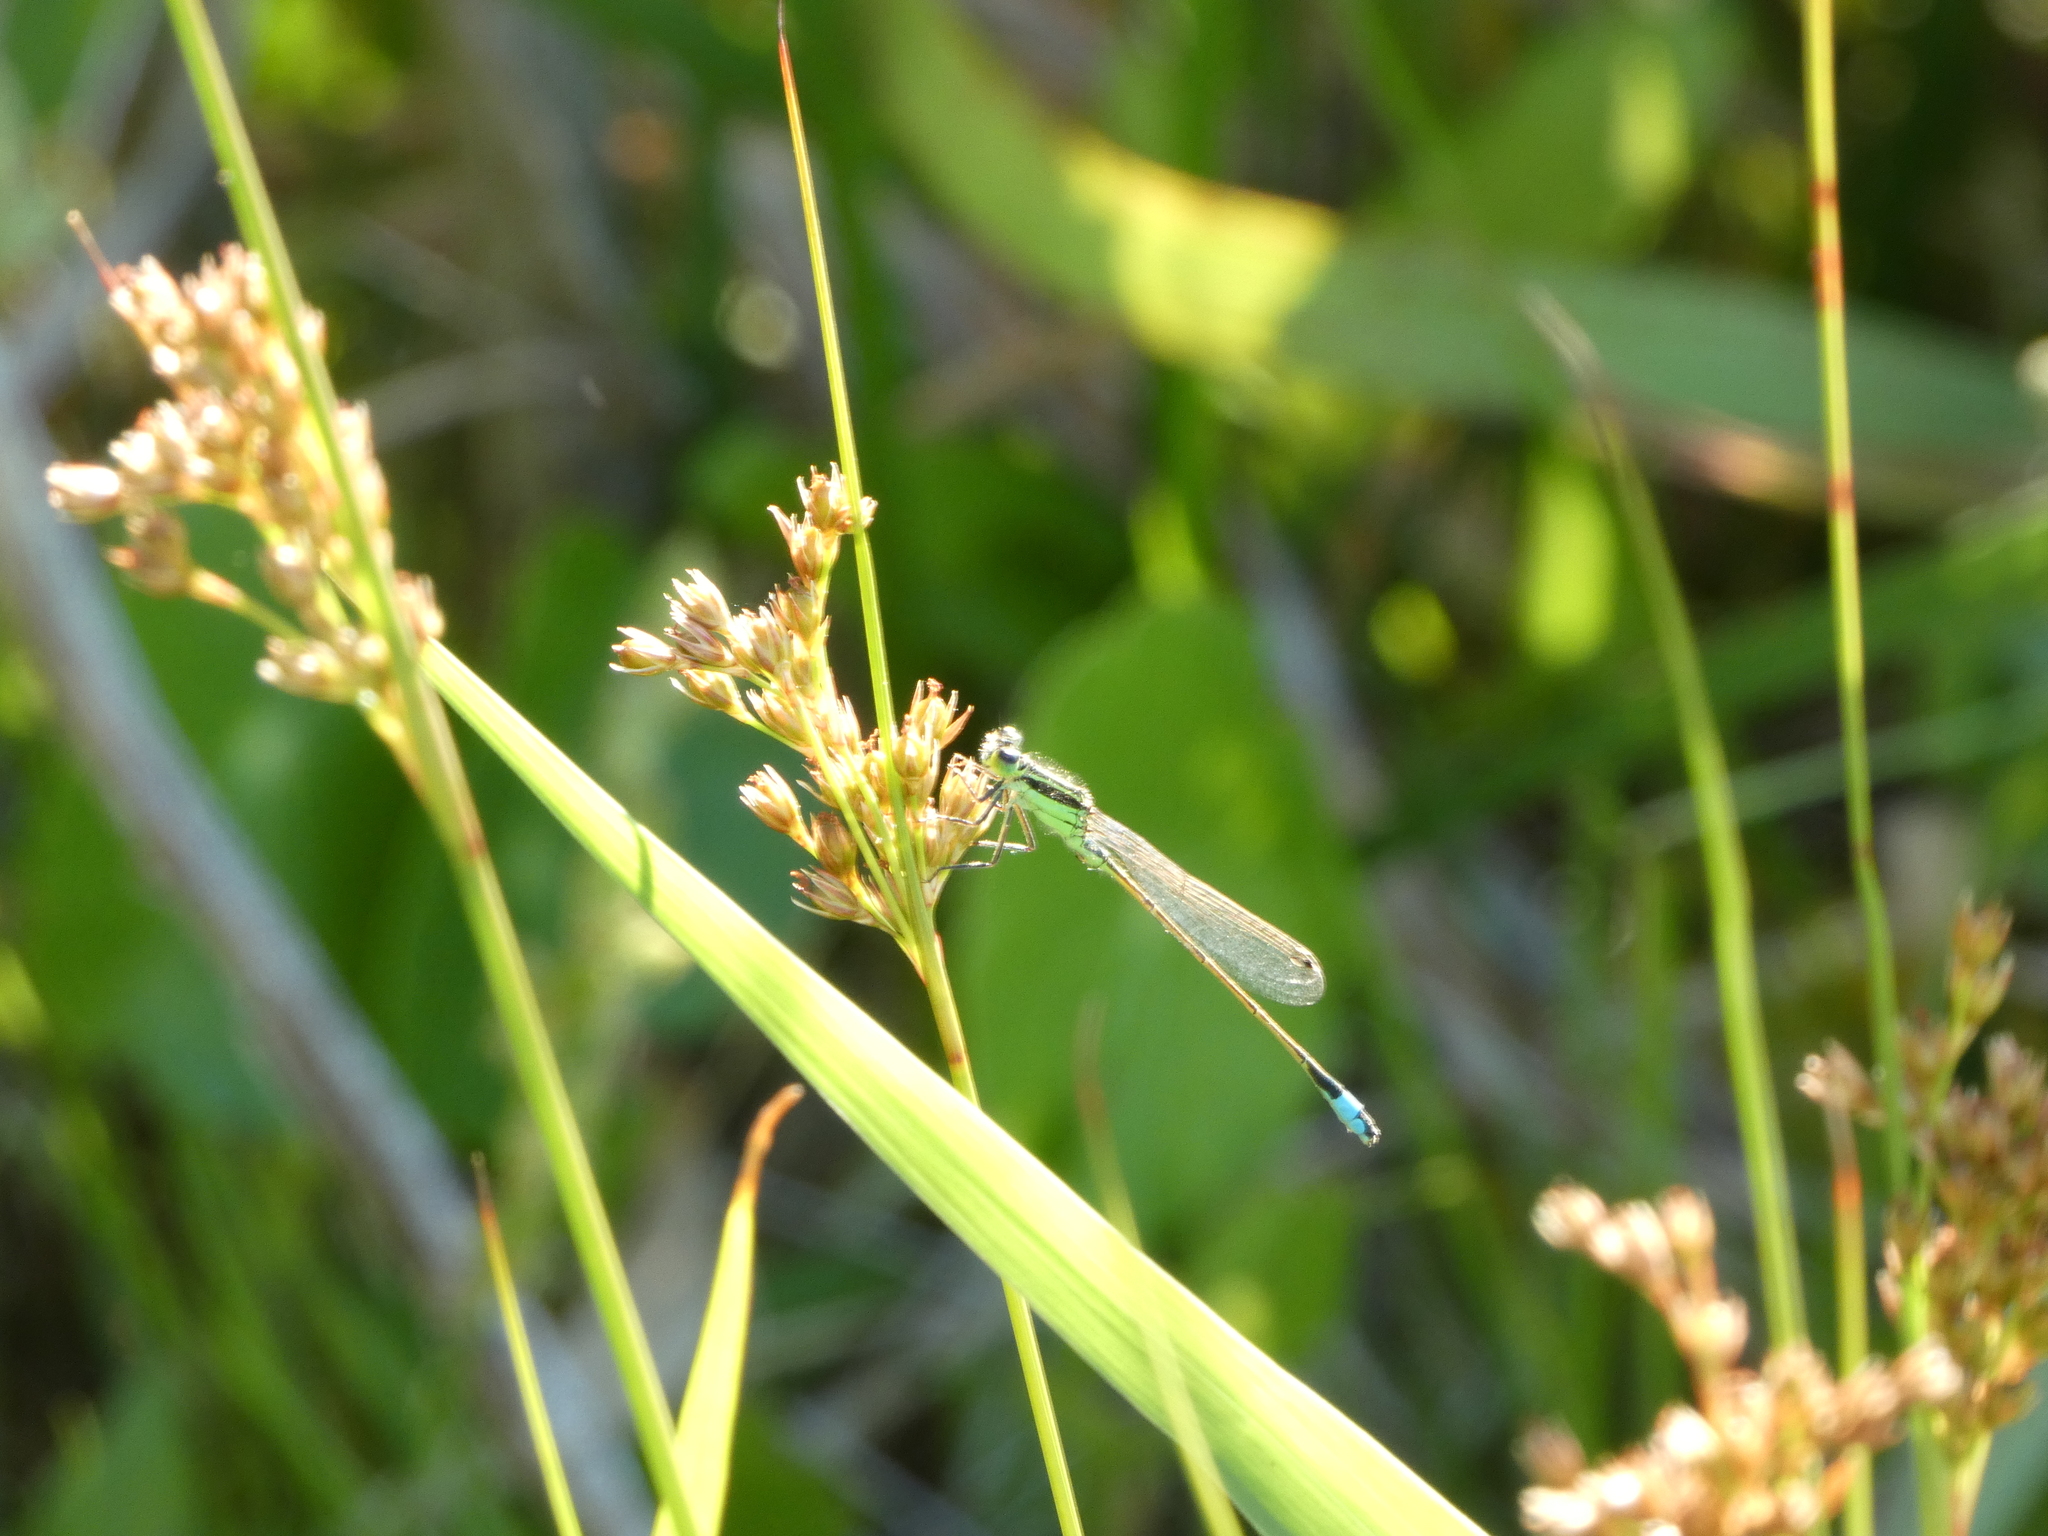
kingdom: Animalia
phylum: Arthropoda
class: Insecta
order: Odonata
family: Coenagrionidae
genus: Ischnura
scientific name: Ischnura ramburii
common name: Rambur's forktail
